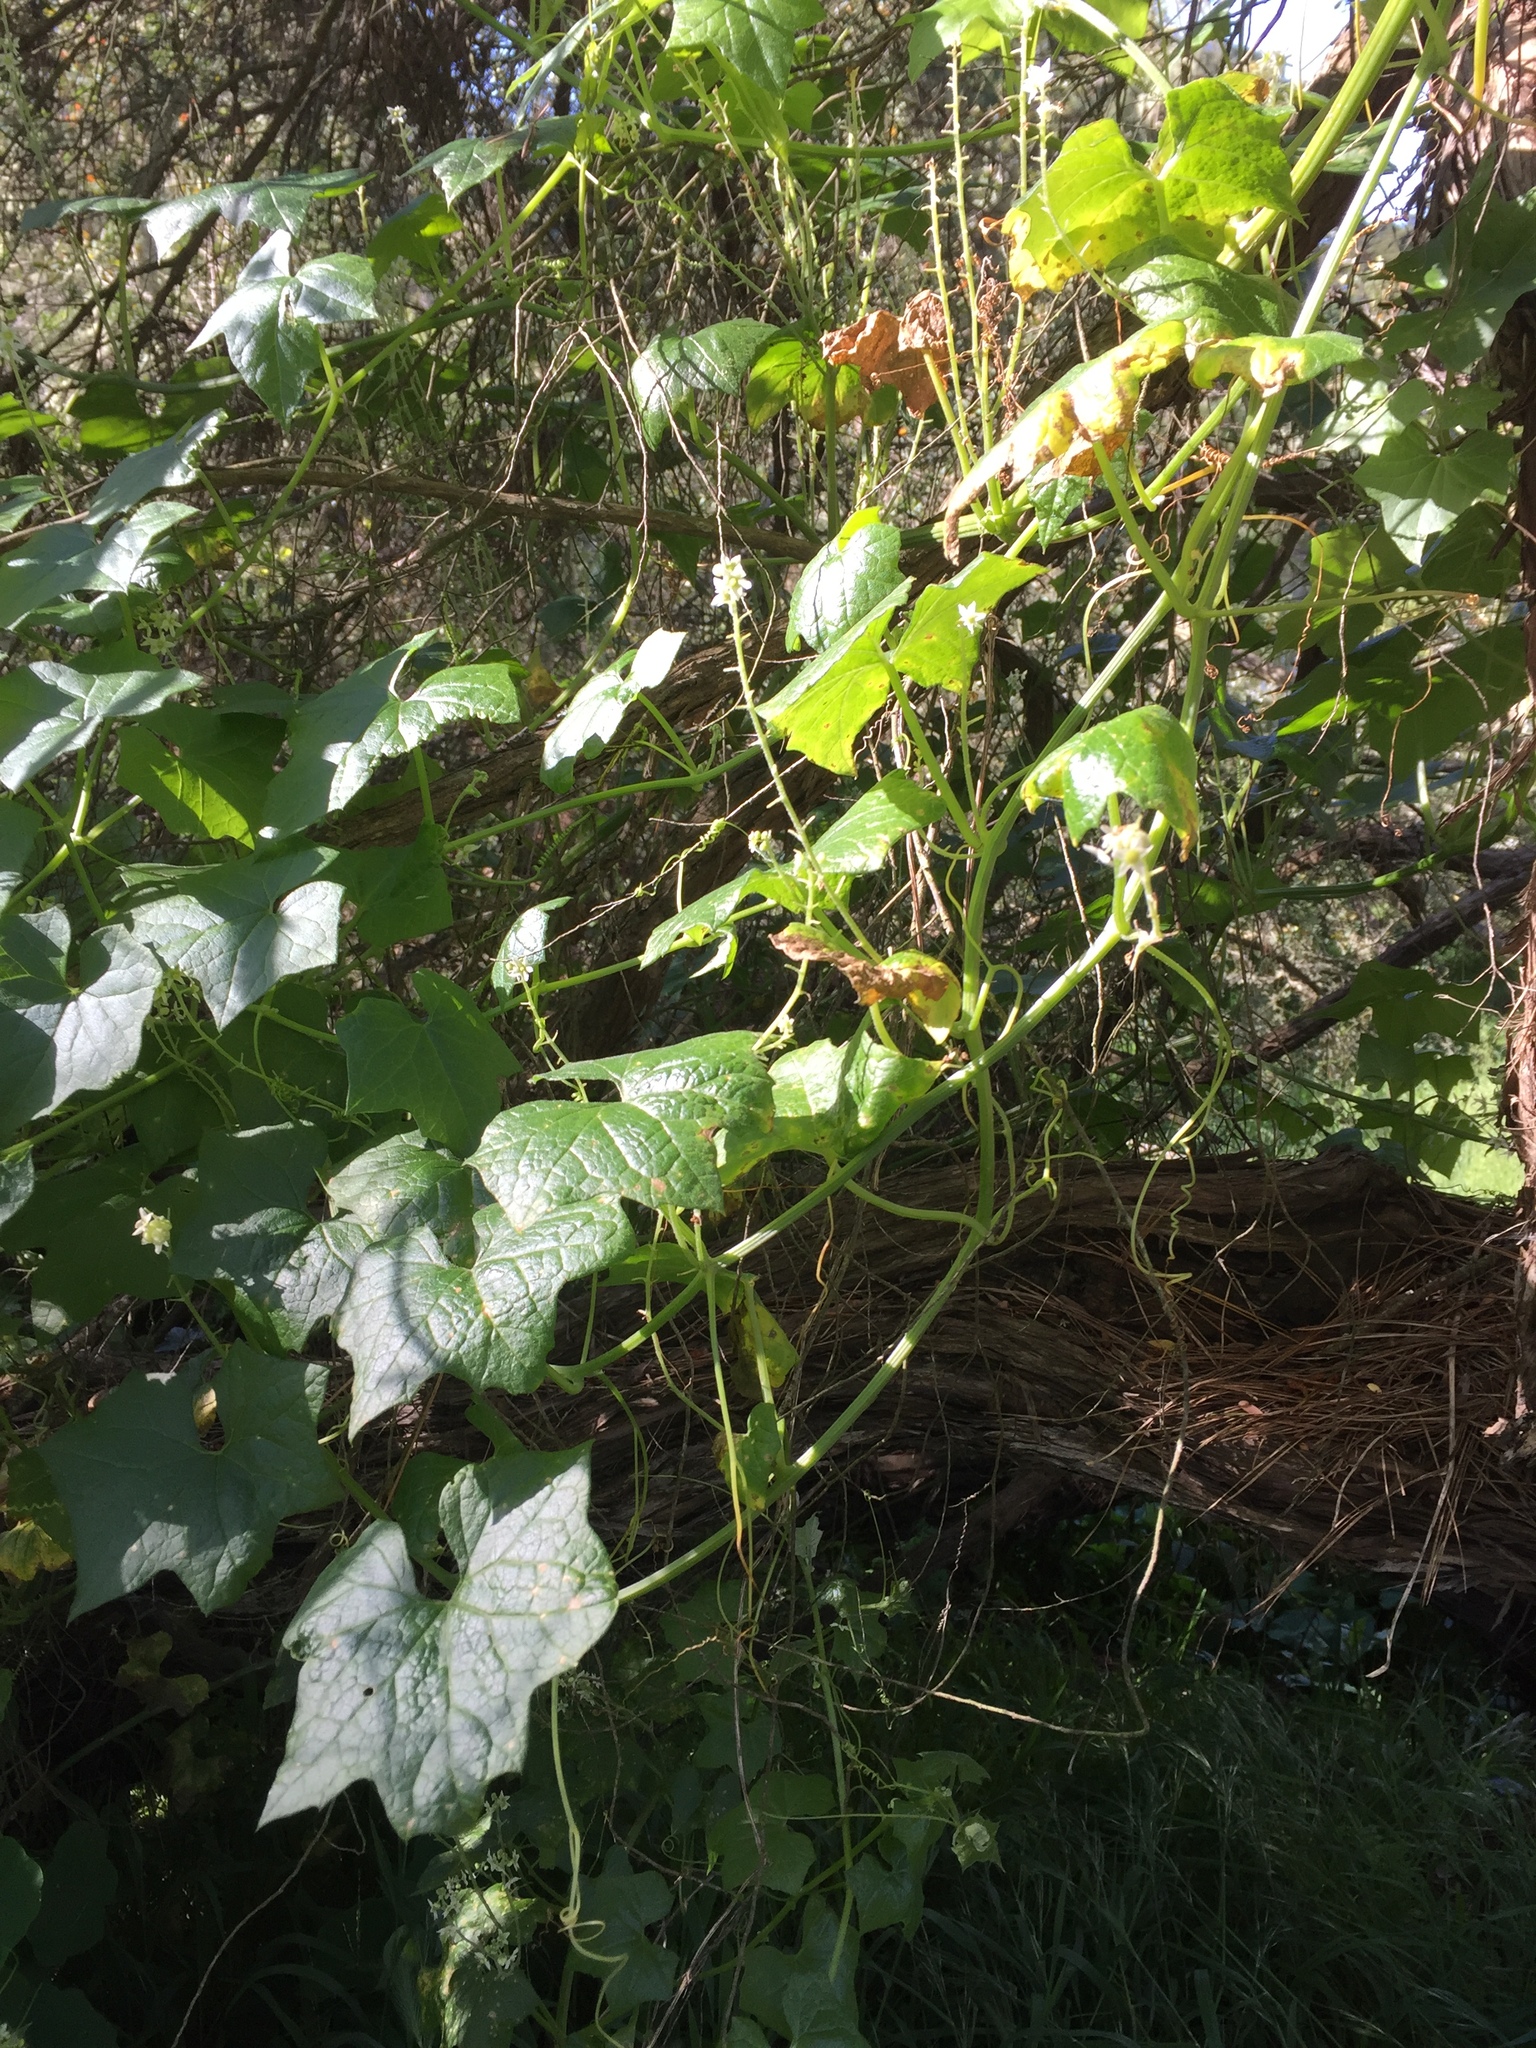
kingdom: Plantae
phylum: Tracheophyta
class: Magnoliopsida
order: Cucurbitales
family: Cucurbitaceae
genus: Marah
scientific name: Marah fabacea
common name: California manroot
